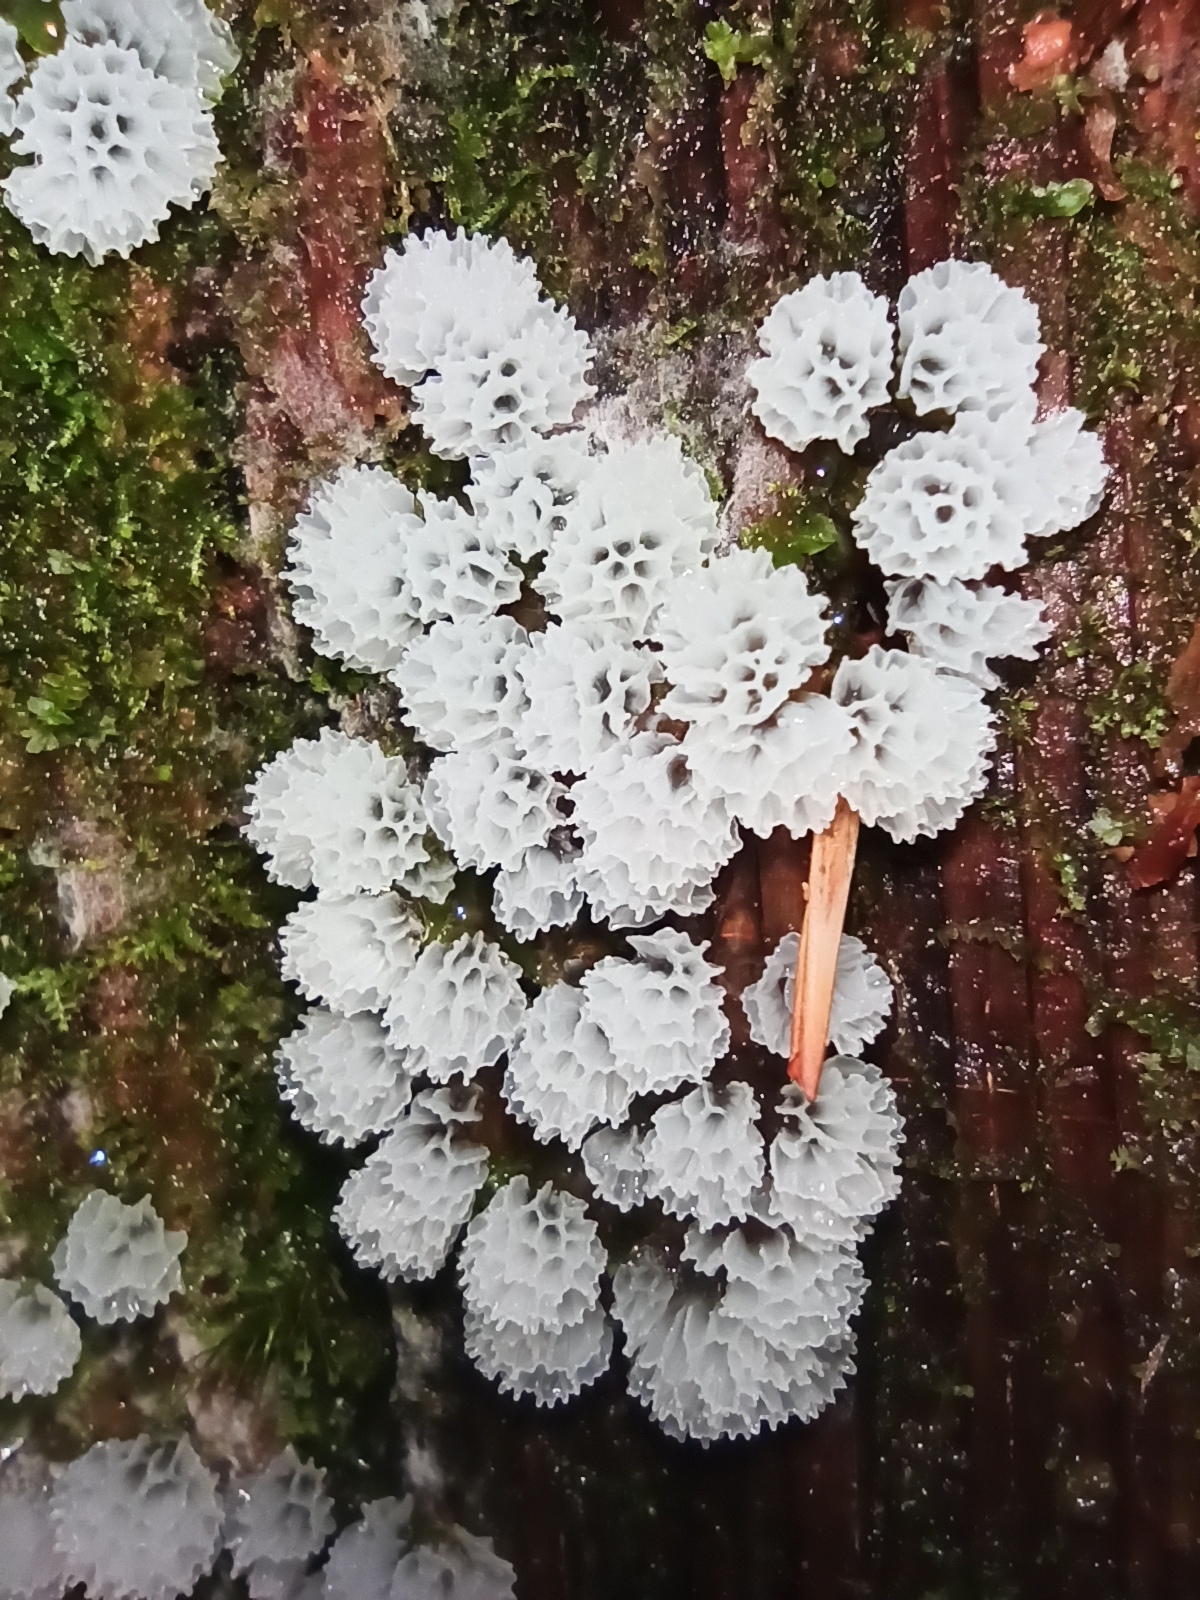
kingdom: Protozoa
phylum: Mycetozoa
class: Protosteliomycetes
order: Ceratiomyxales
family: Ceratiomyxaceae
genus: Ceratiomyxa
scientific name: Ceratiomyxa fruticulosa
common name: Honeycomb coral slime mold
